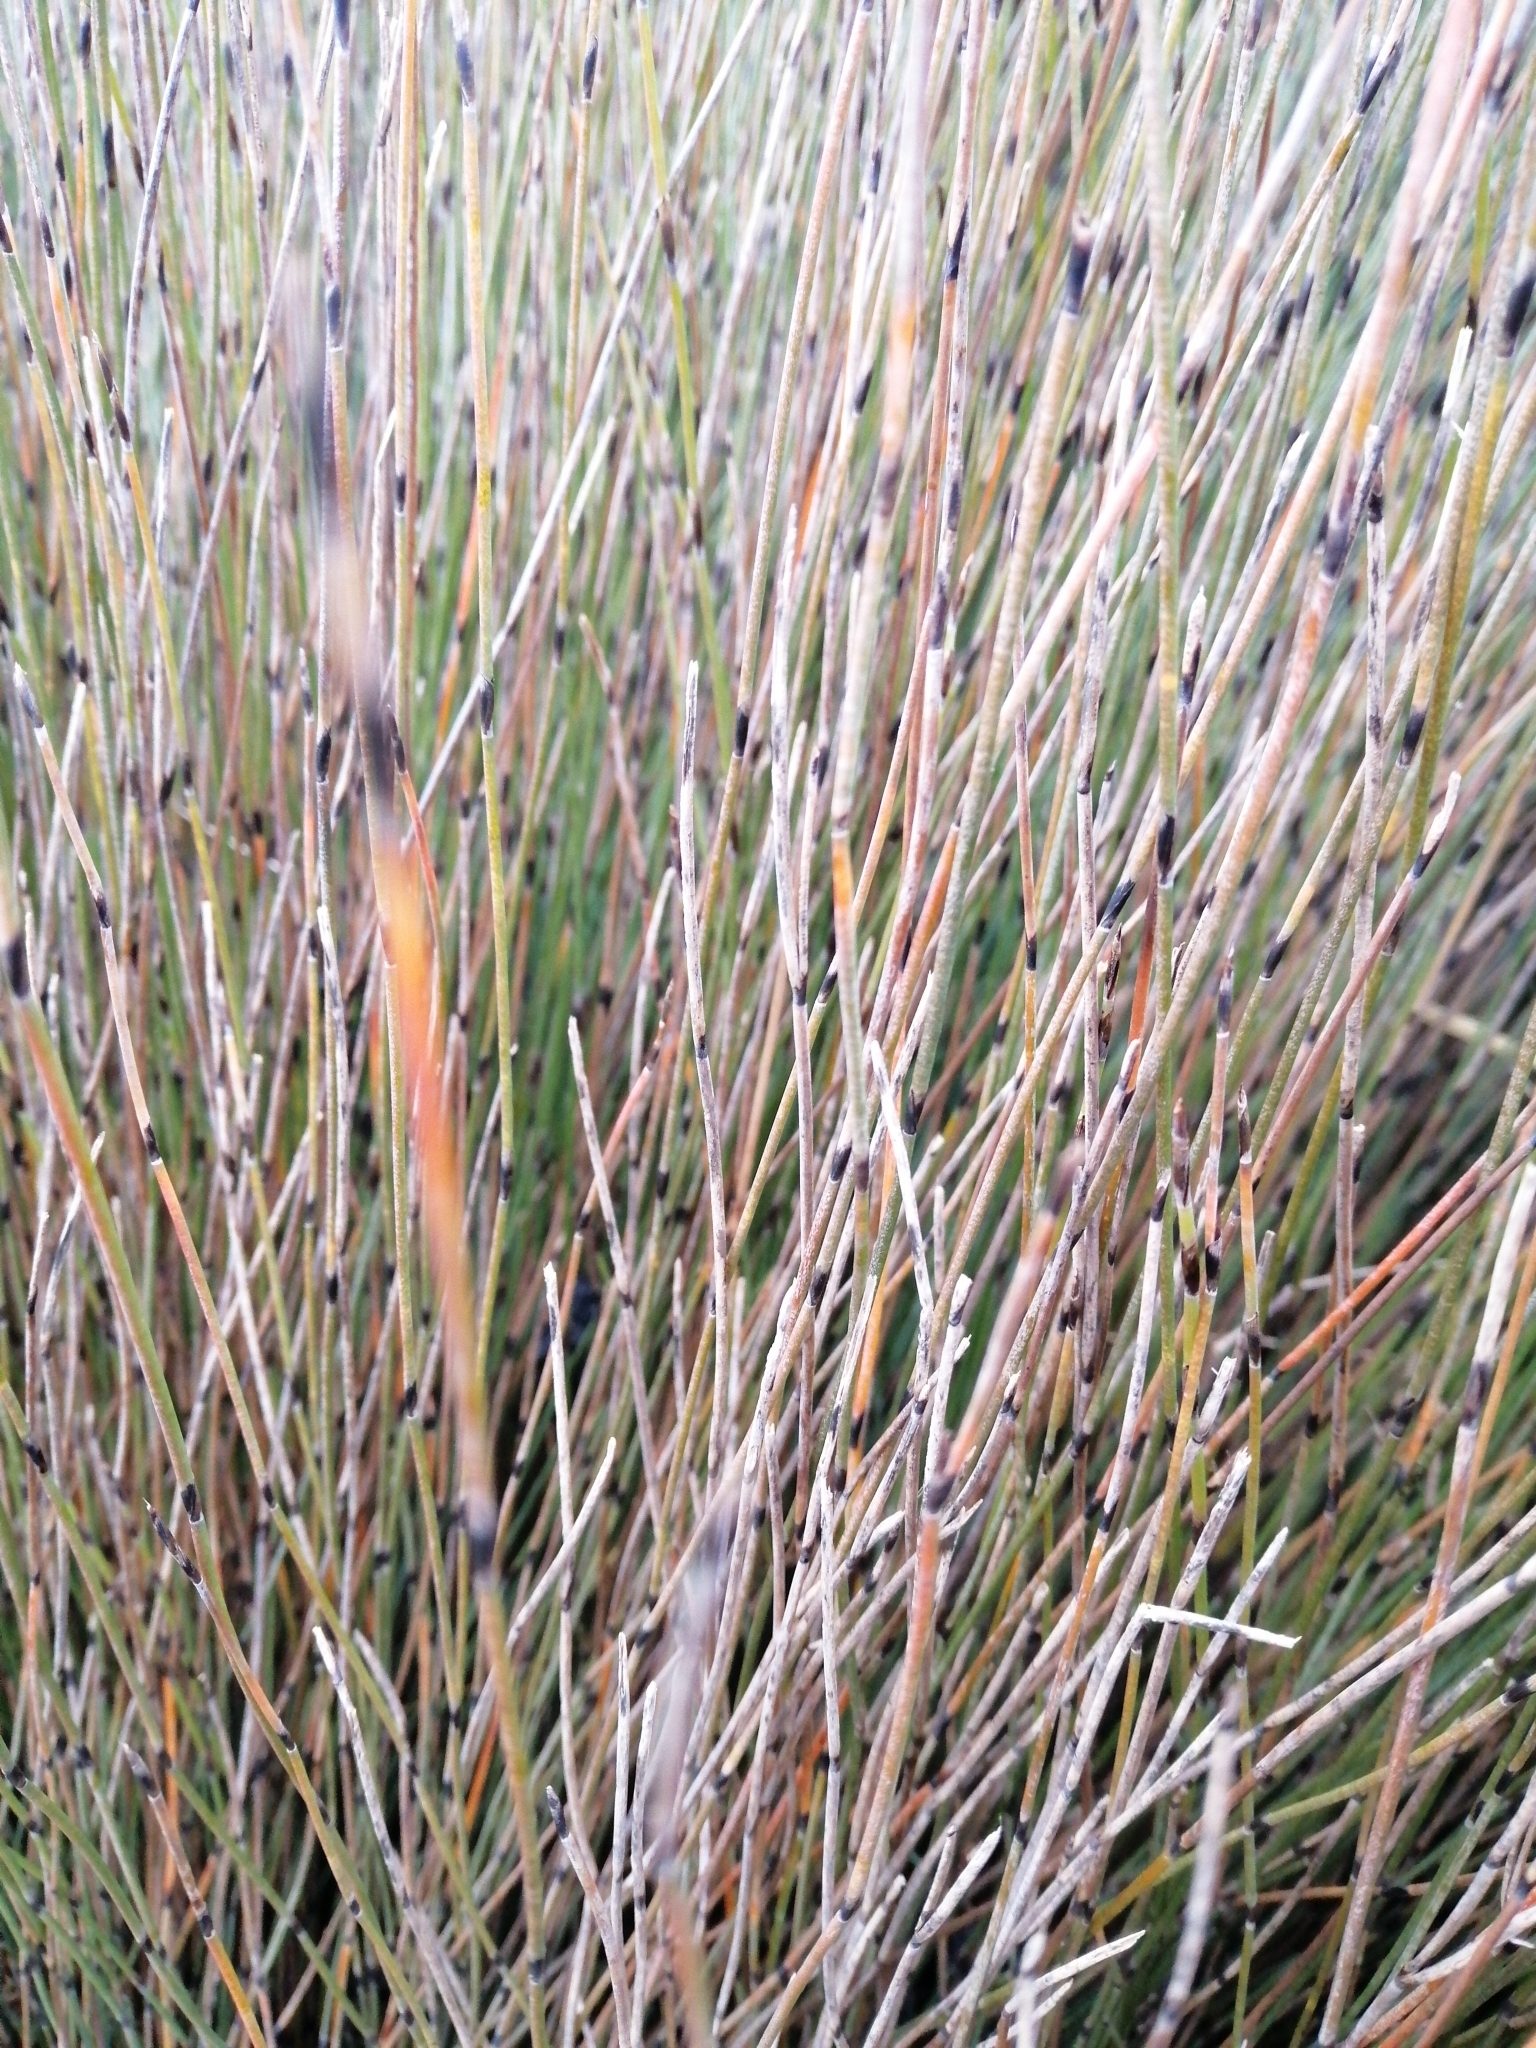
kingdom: Plantae
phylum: Tracheophyta
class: Liliopsida
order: Poales
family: Restionaceae
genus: Apodasmia
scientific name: Apodasmia similis
